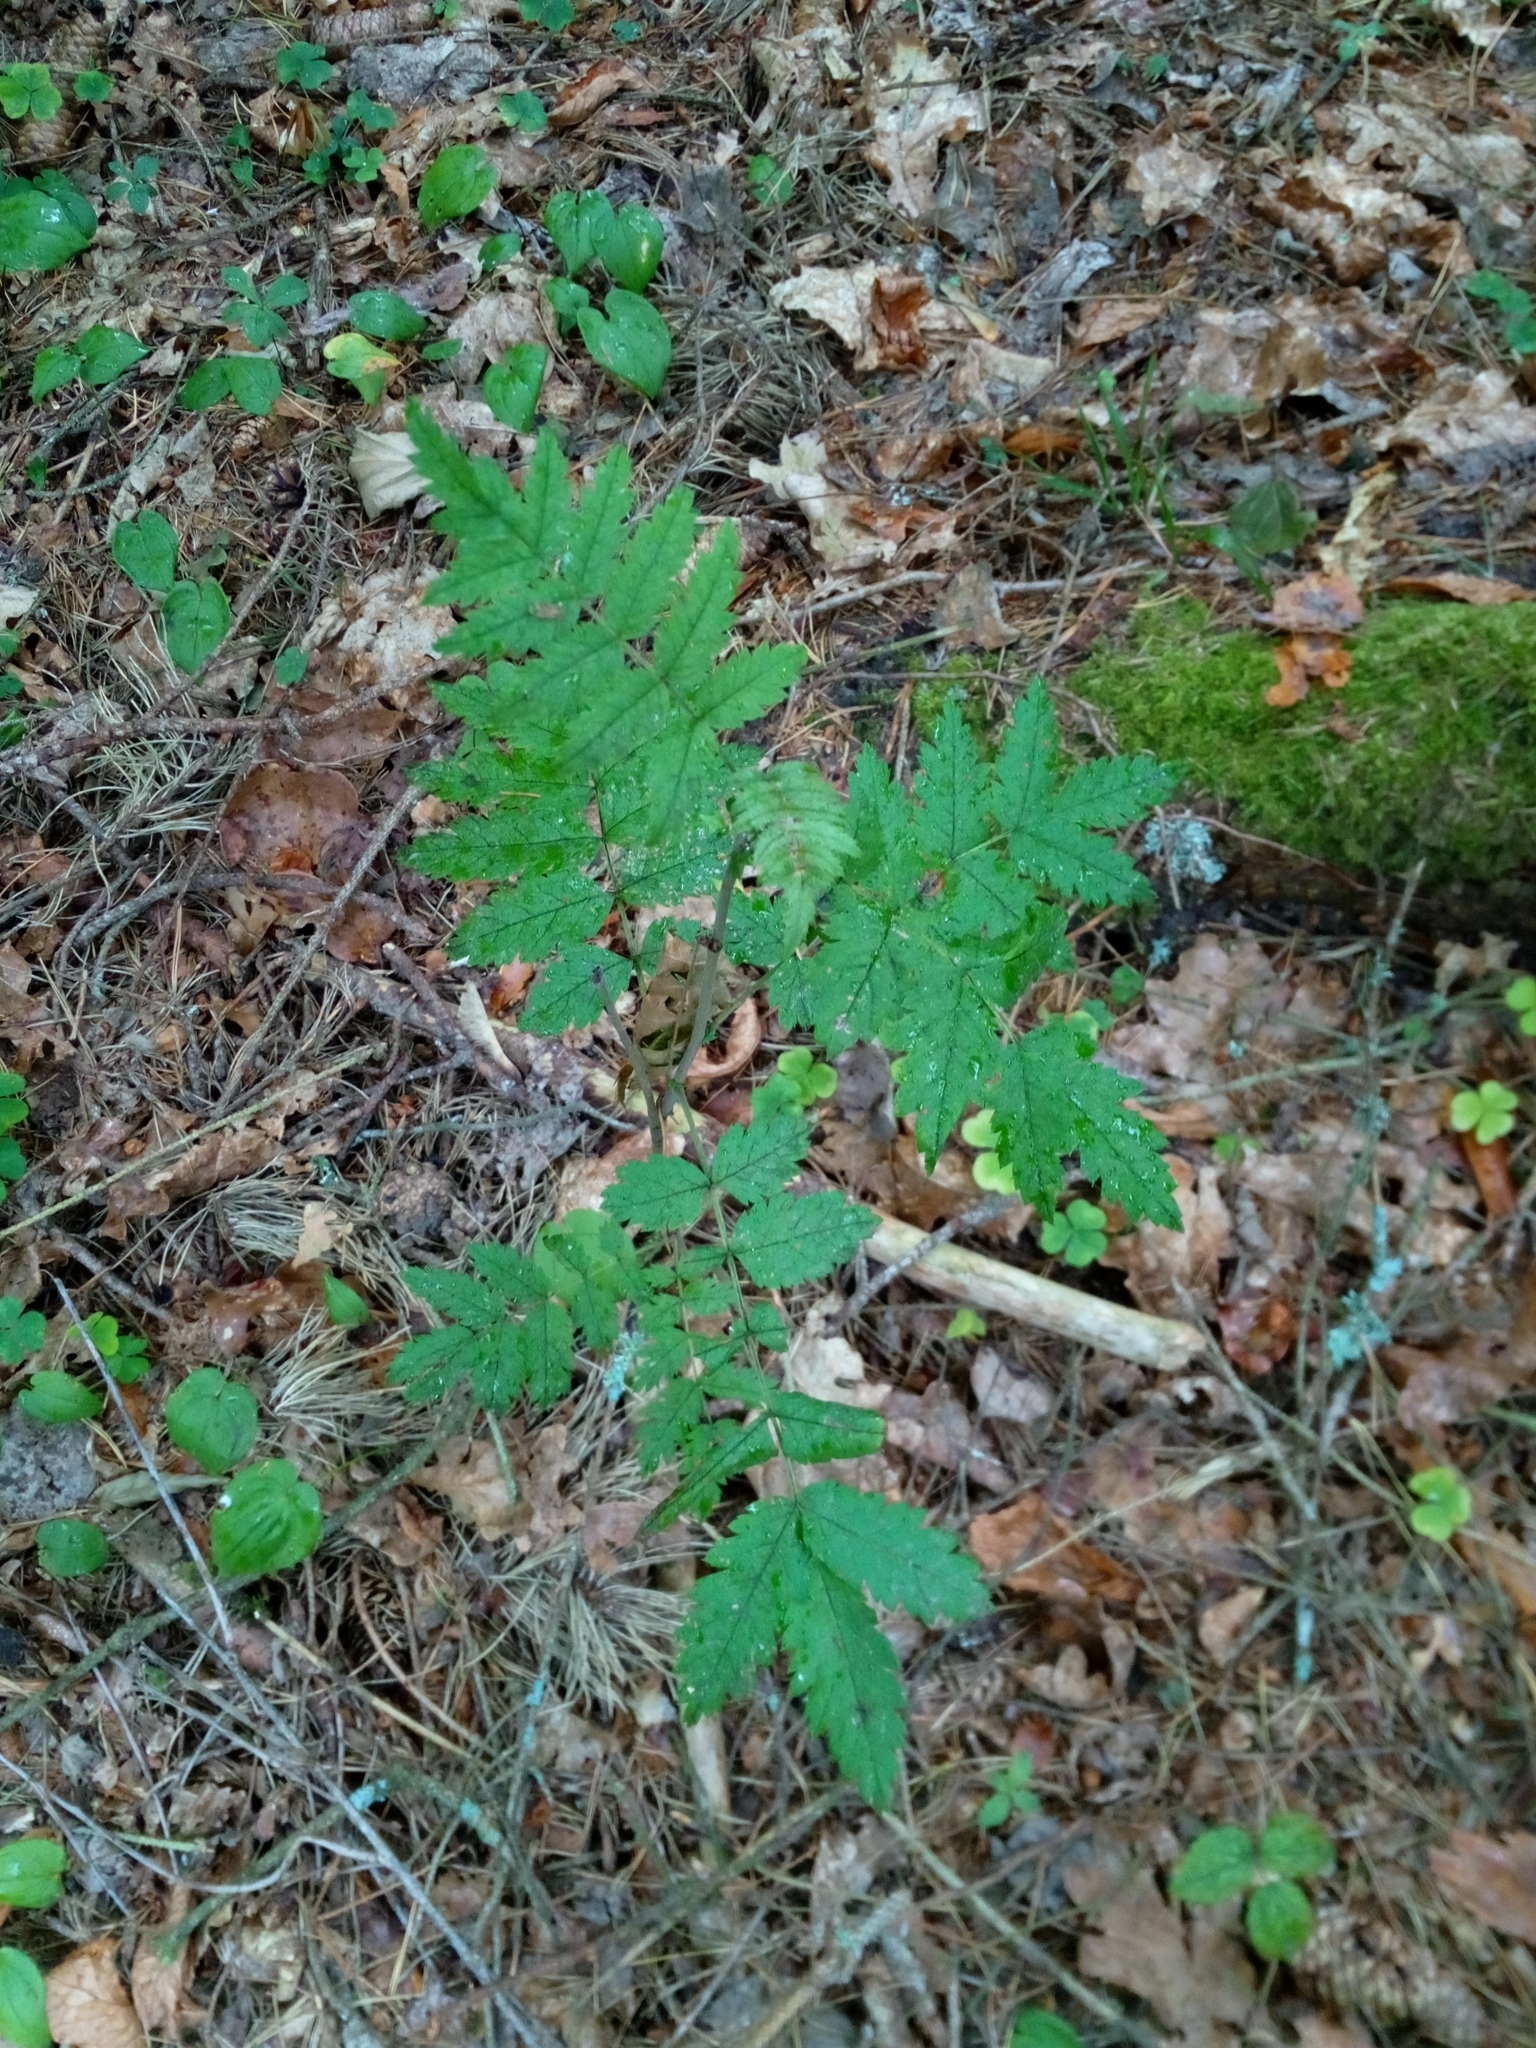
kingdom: Plantae
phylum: Tracheophyta
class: Magnoliopsida
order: Rosales
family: Rosaceae
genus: Sorbus
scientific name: Sorbus aucuparia
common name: Rowan
